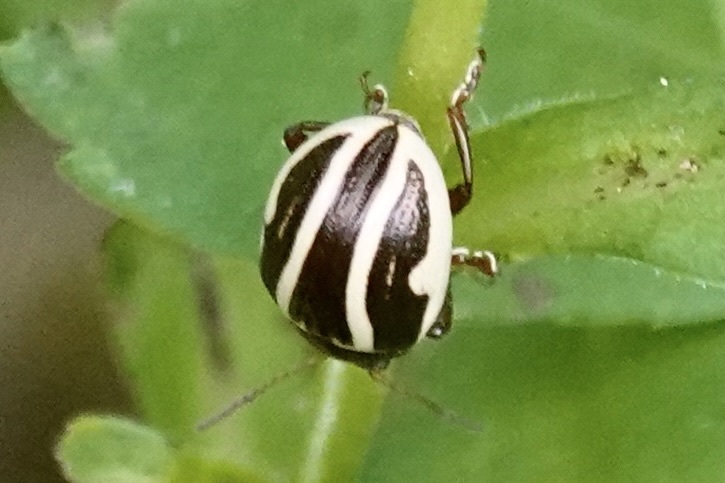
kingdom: Animalia
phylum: Arthropoda
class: Insecta
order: Coleoptera
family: Chrysomelidae
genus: Calligrapha
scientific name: Calligrapha bidenticola
